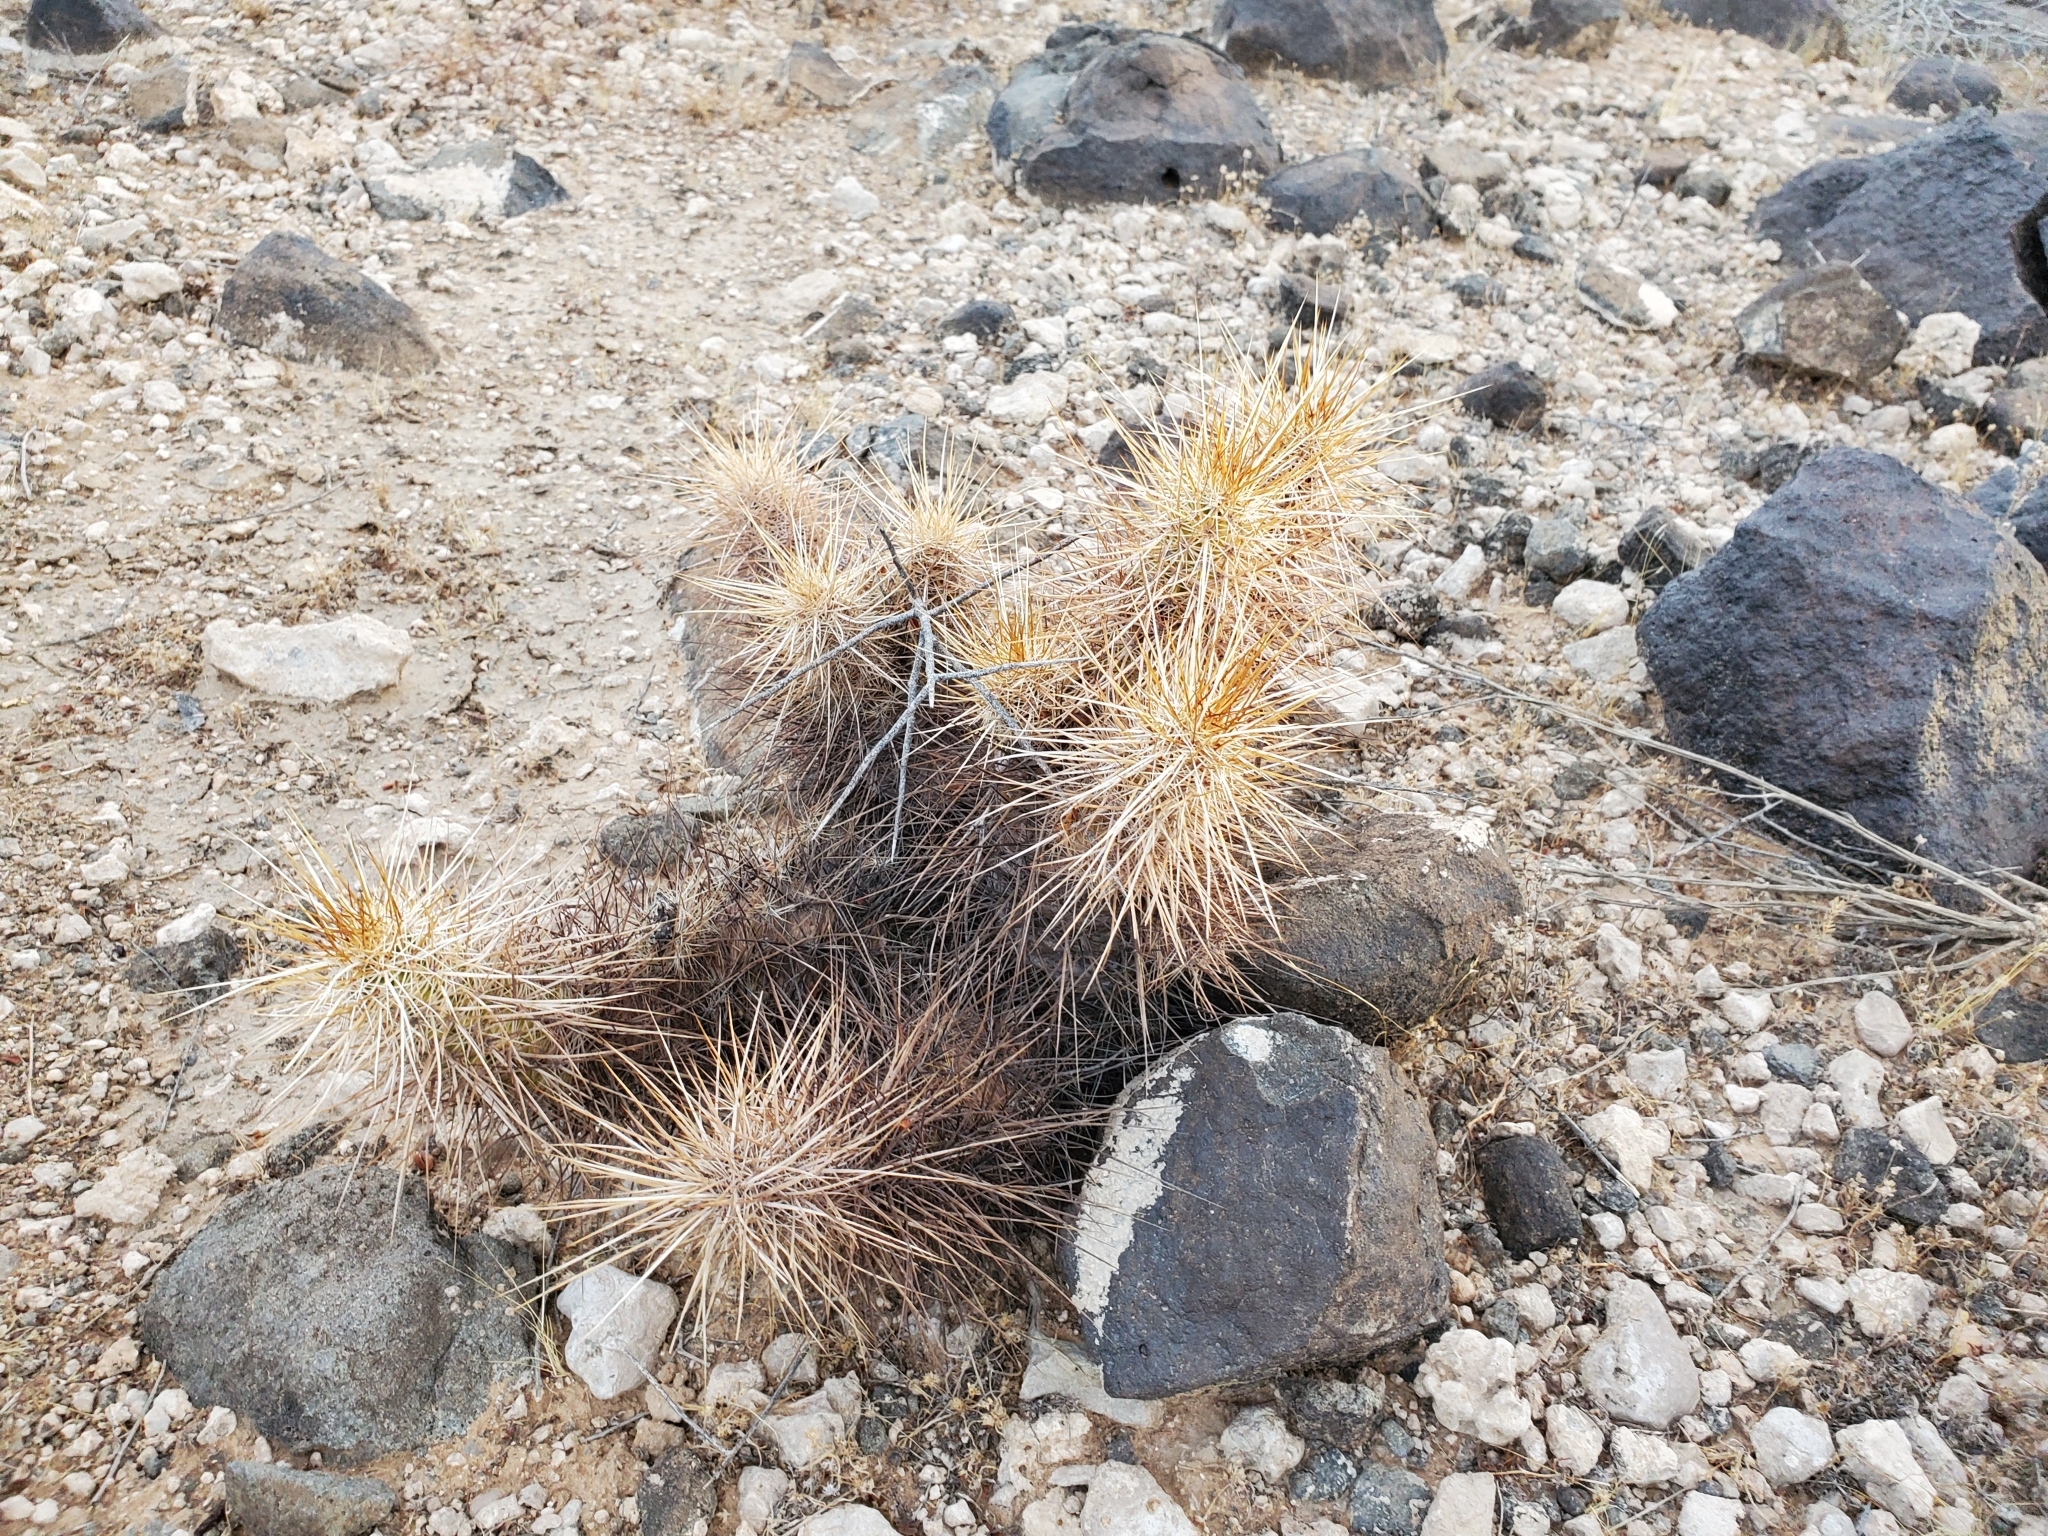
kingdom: Plantae
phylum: Tracheophyta
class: Magnoliopsida
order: Caryophyllales
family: Cactaceae
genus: Echinocereus
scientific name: Echinocereus engelmannii
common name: Engelmann's hedgehog cactus
